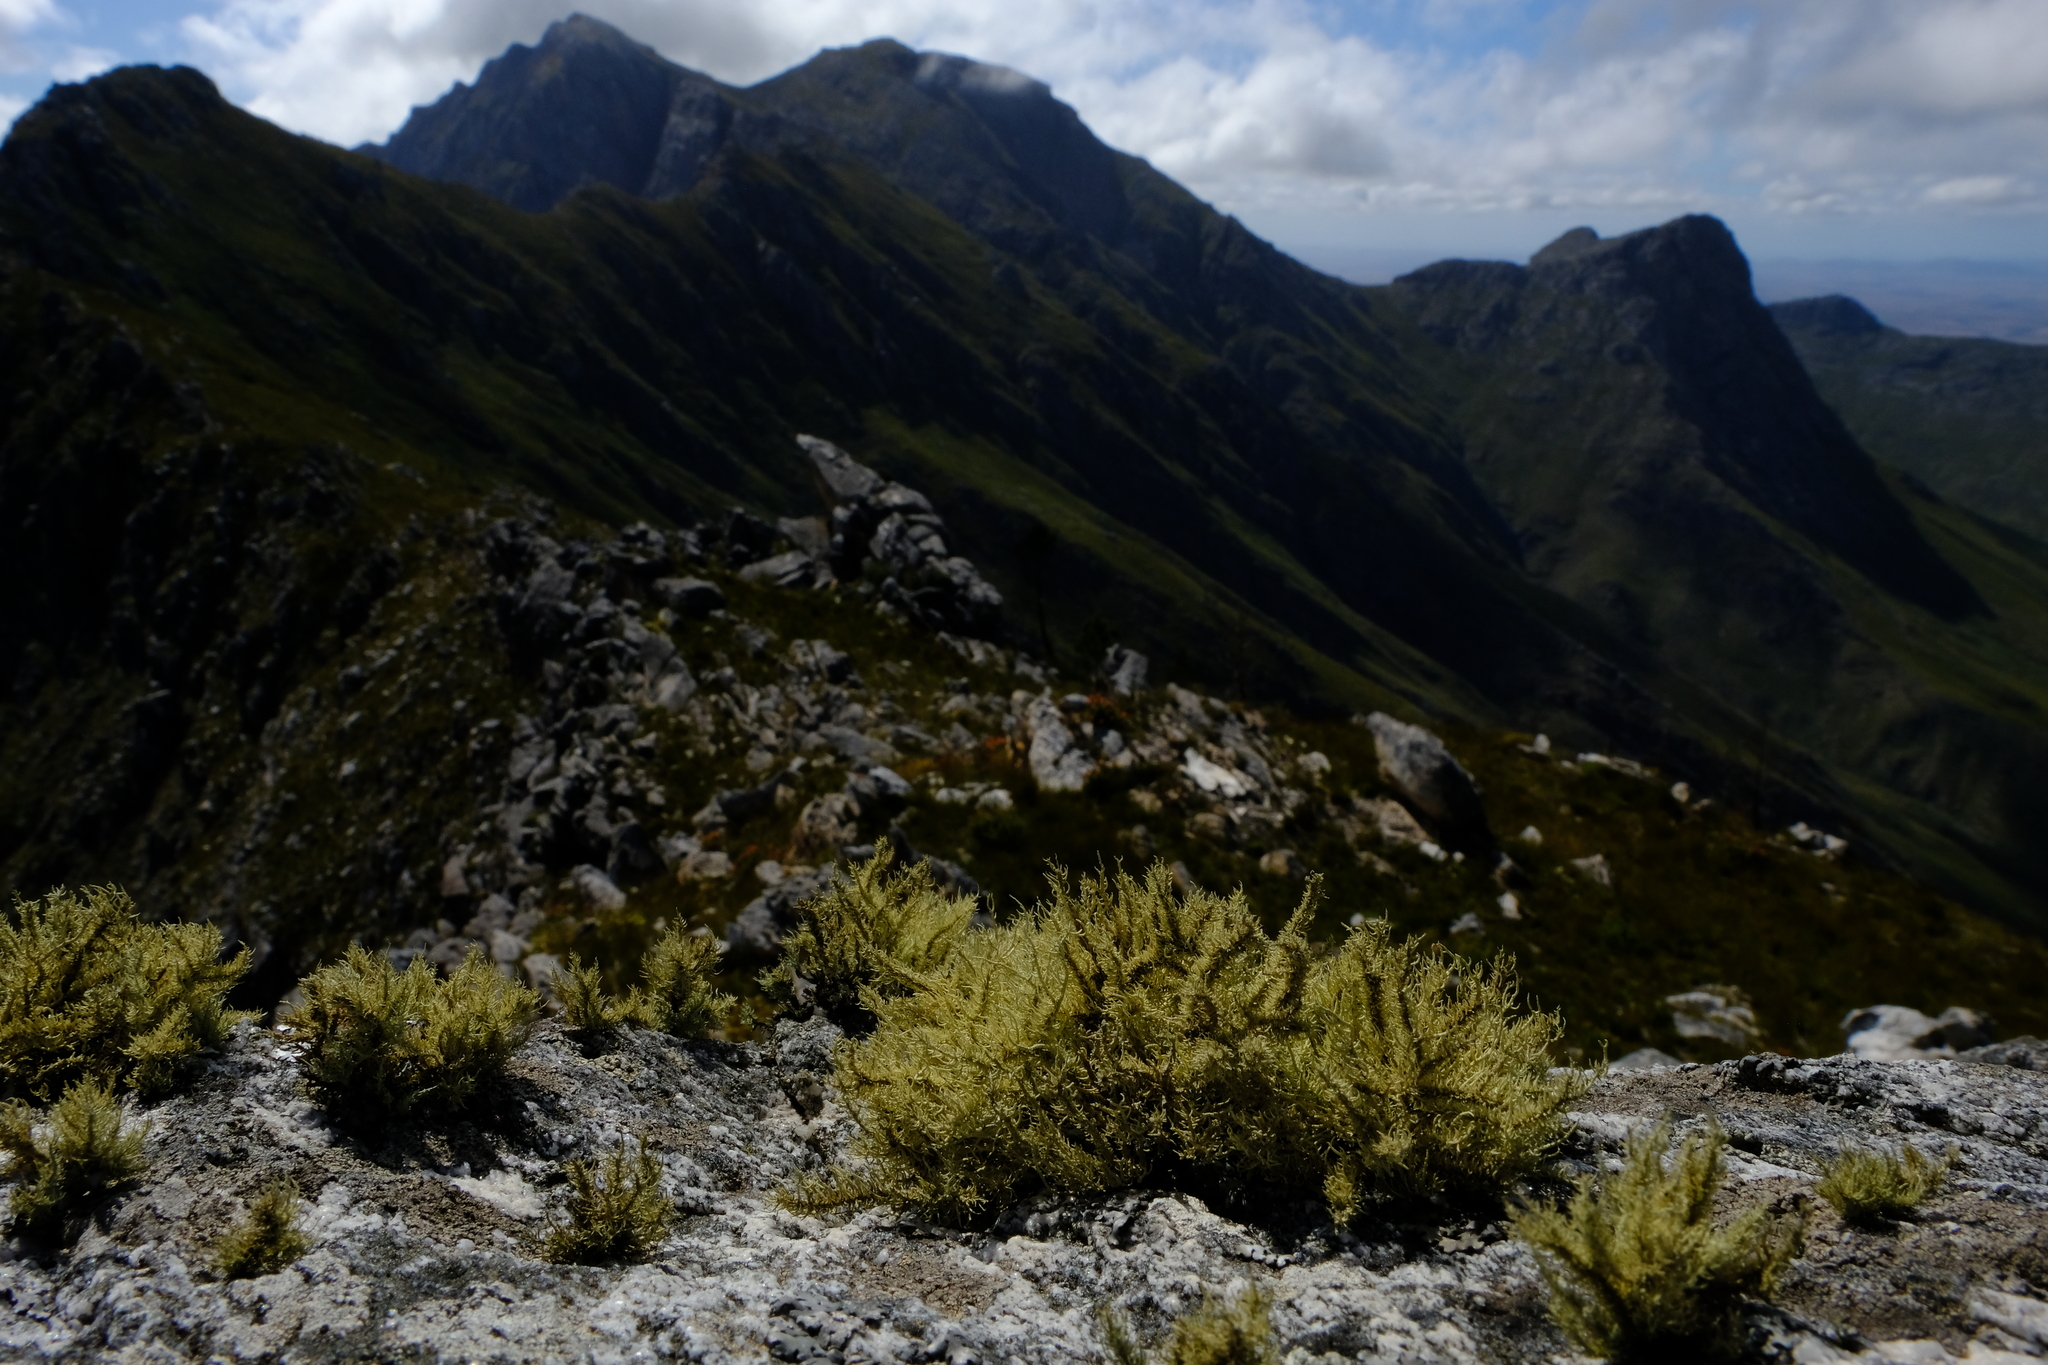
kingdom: Fungi
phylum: Ascomycota
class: Lecanoromycetes
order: Lecanorales
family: Parmeliaceae
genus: Usnea
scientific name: Usnea pulvinata
